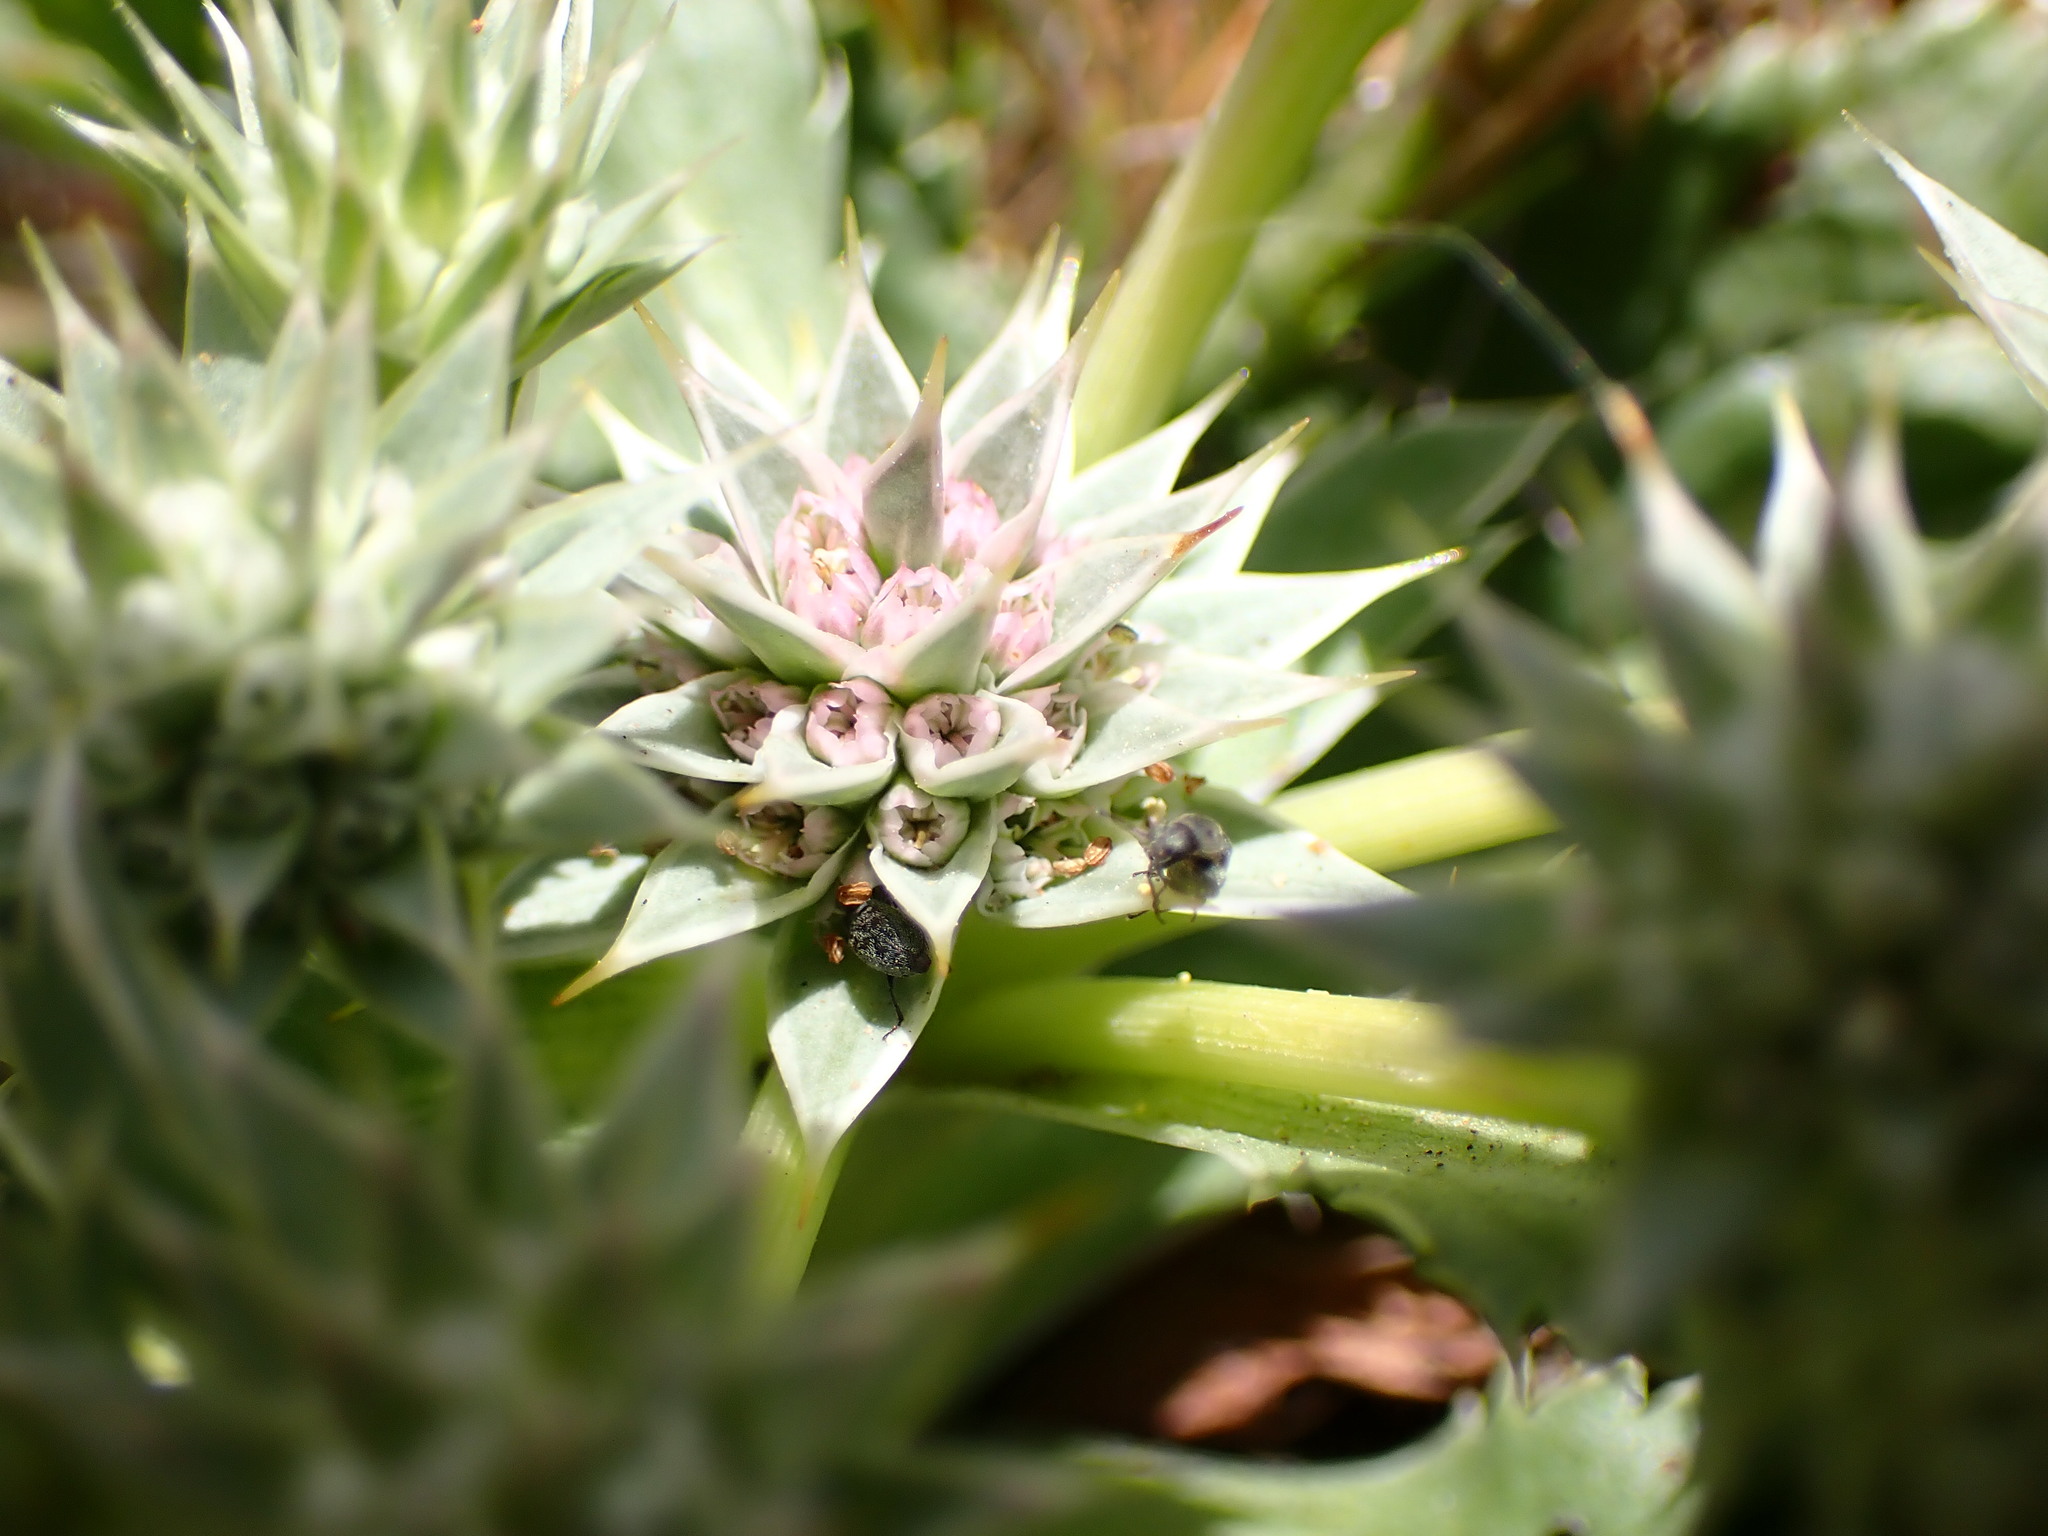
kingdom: Plantae
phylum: Tracheophyta
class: Magnoliopsida
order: Apiales
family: Apiaceae
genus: Eryngium
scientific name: Eryngium armatum
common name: Coyote thistle
